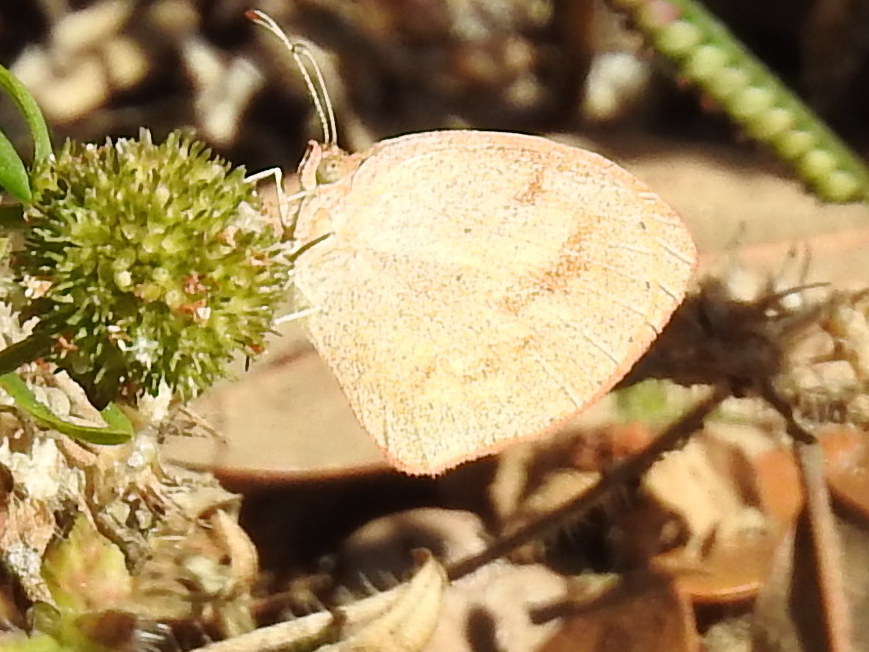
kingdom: Animalia
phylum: Arthropoda
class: Insecta
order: Lepidoptera
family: Pieridae
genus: Eurema
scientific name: Eurema daira
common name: Barred sulphur
